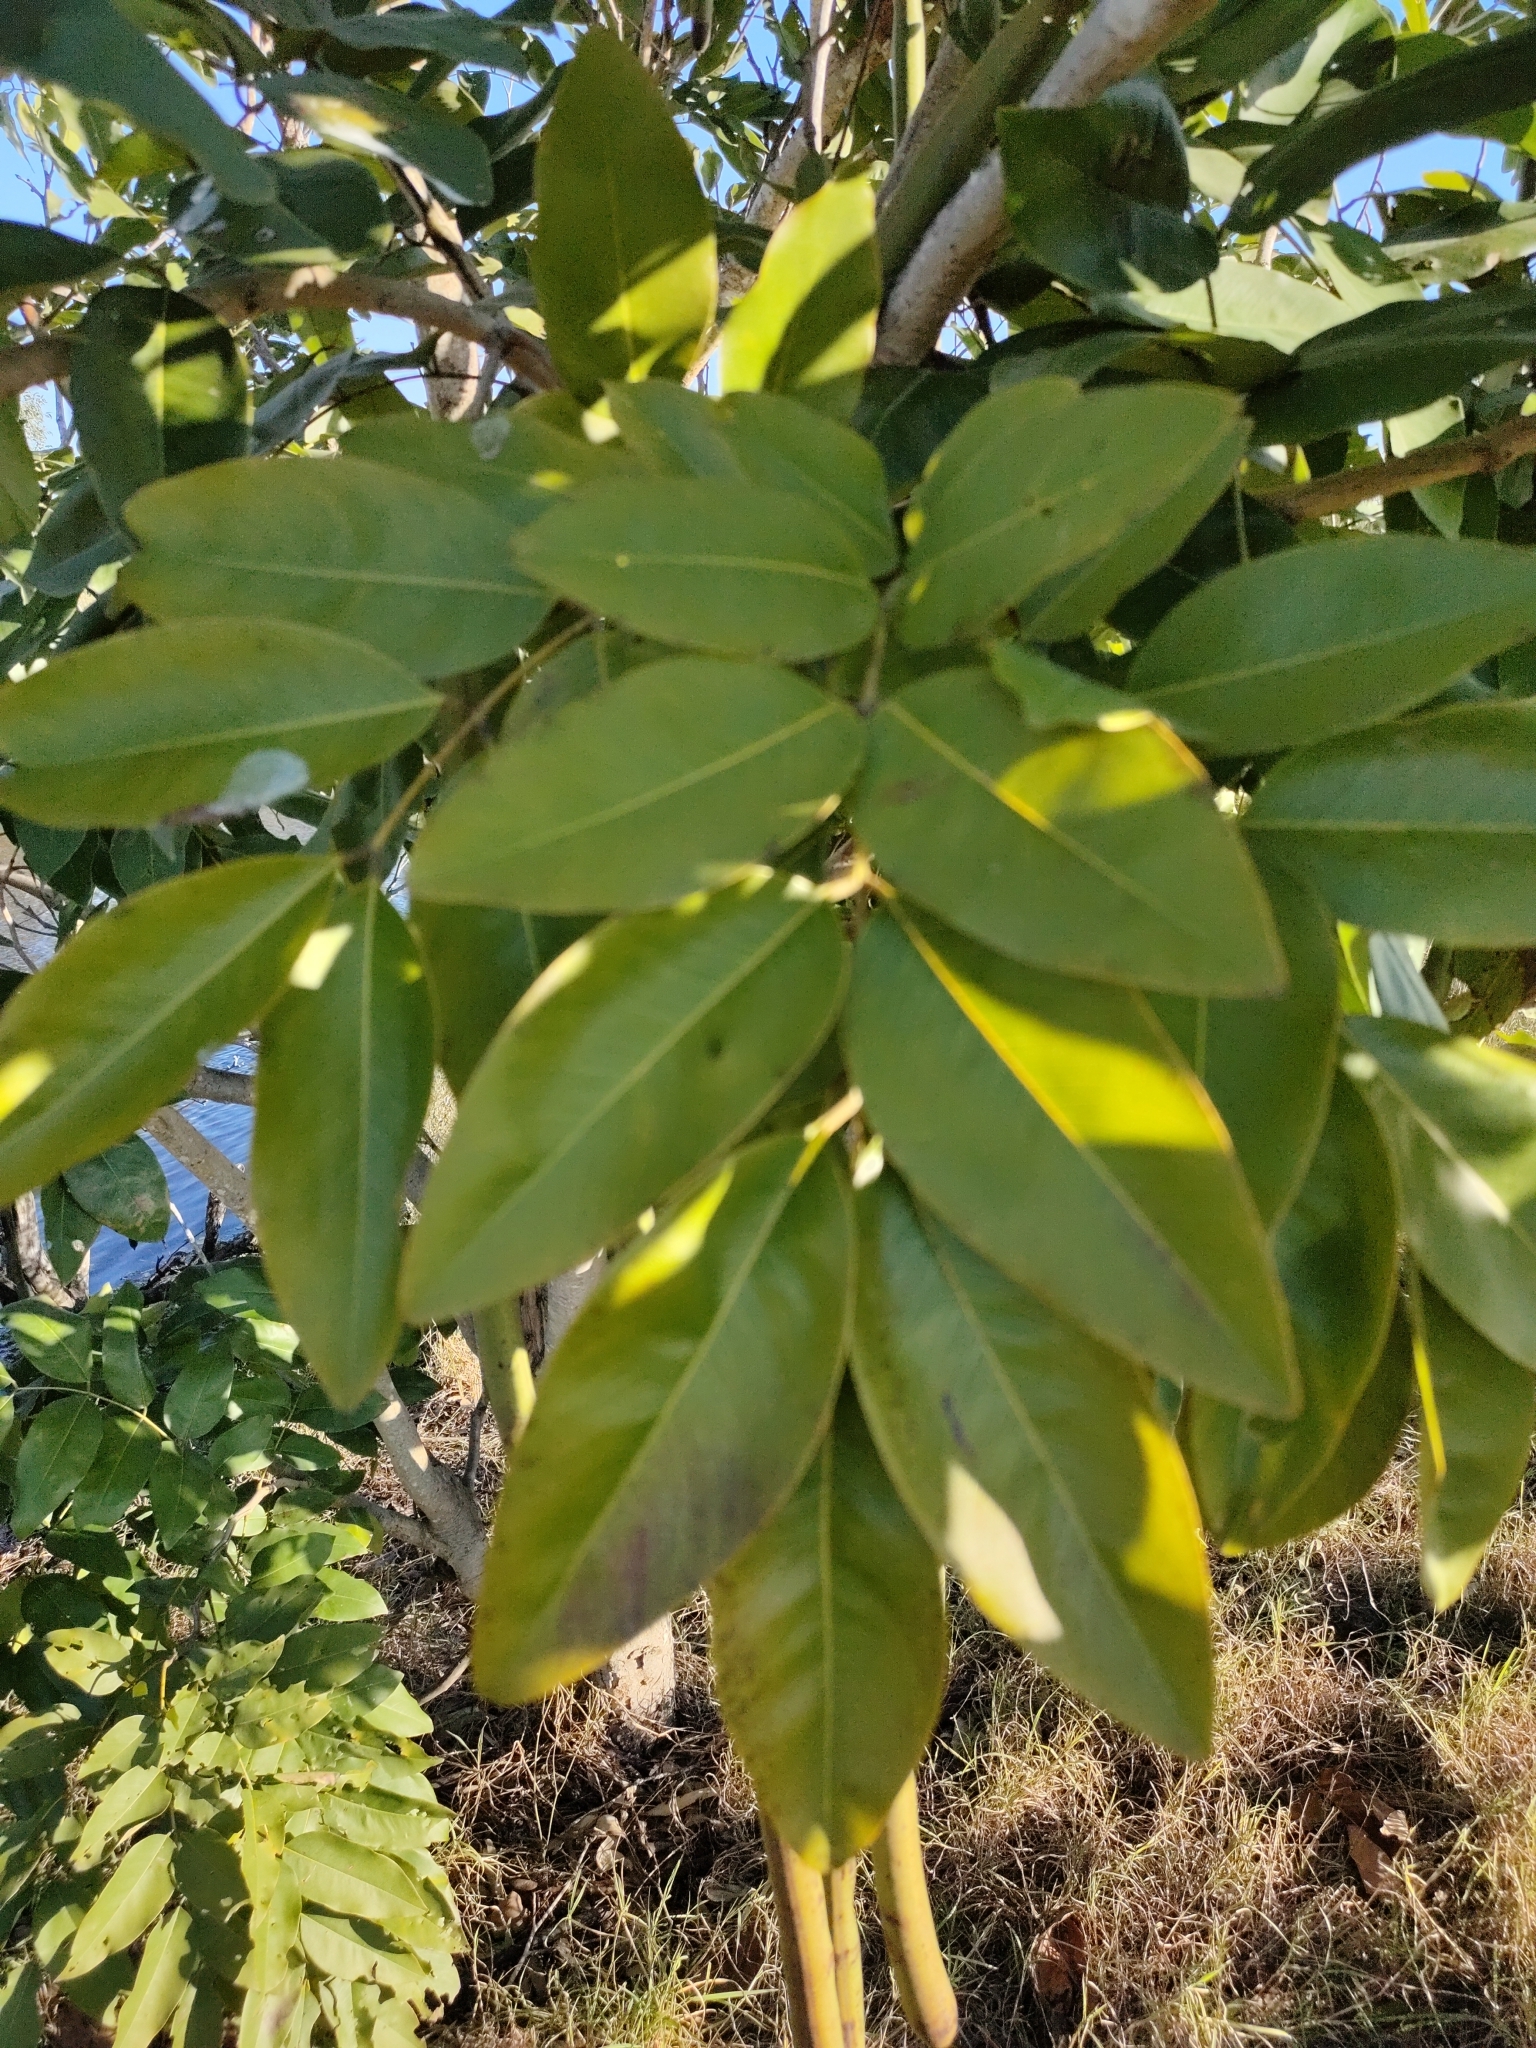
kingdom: Plantae
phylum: Tracheophyta
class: Magnoliopsida
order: Fabales
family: Fabaceae
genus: Cassia
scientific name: Cassia fistula
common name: Golden shower
